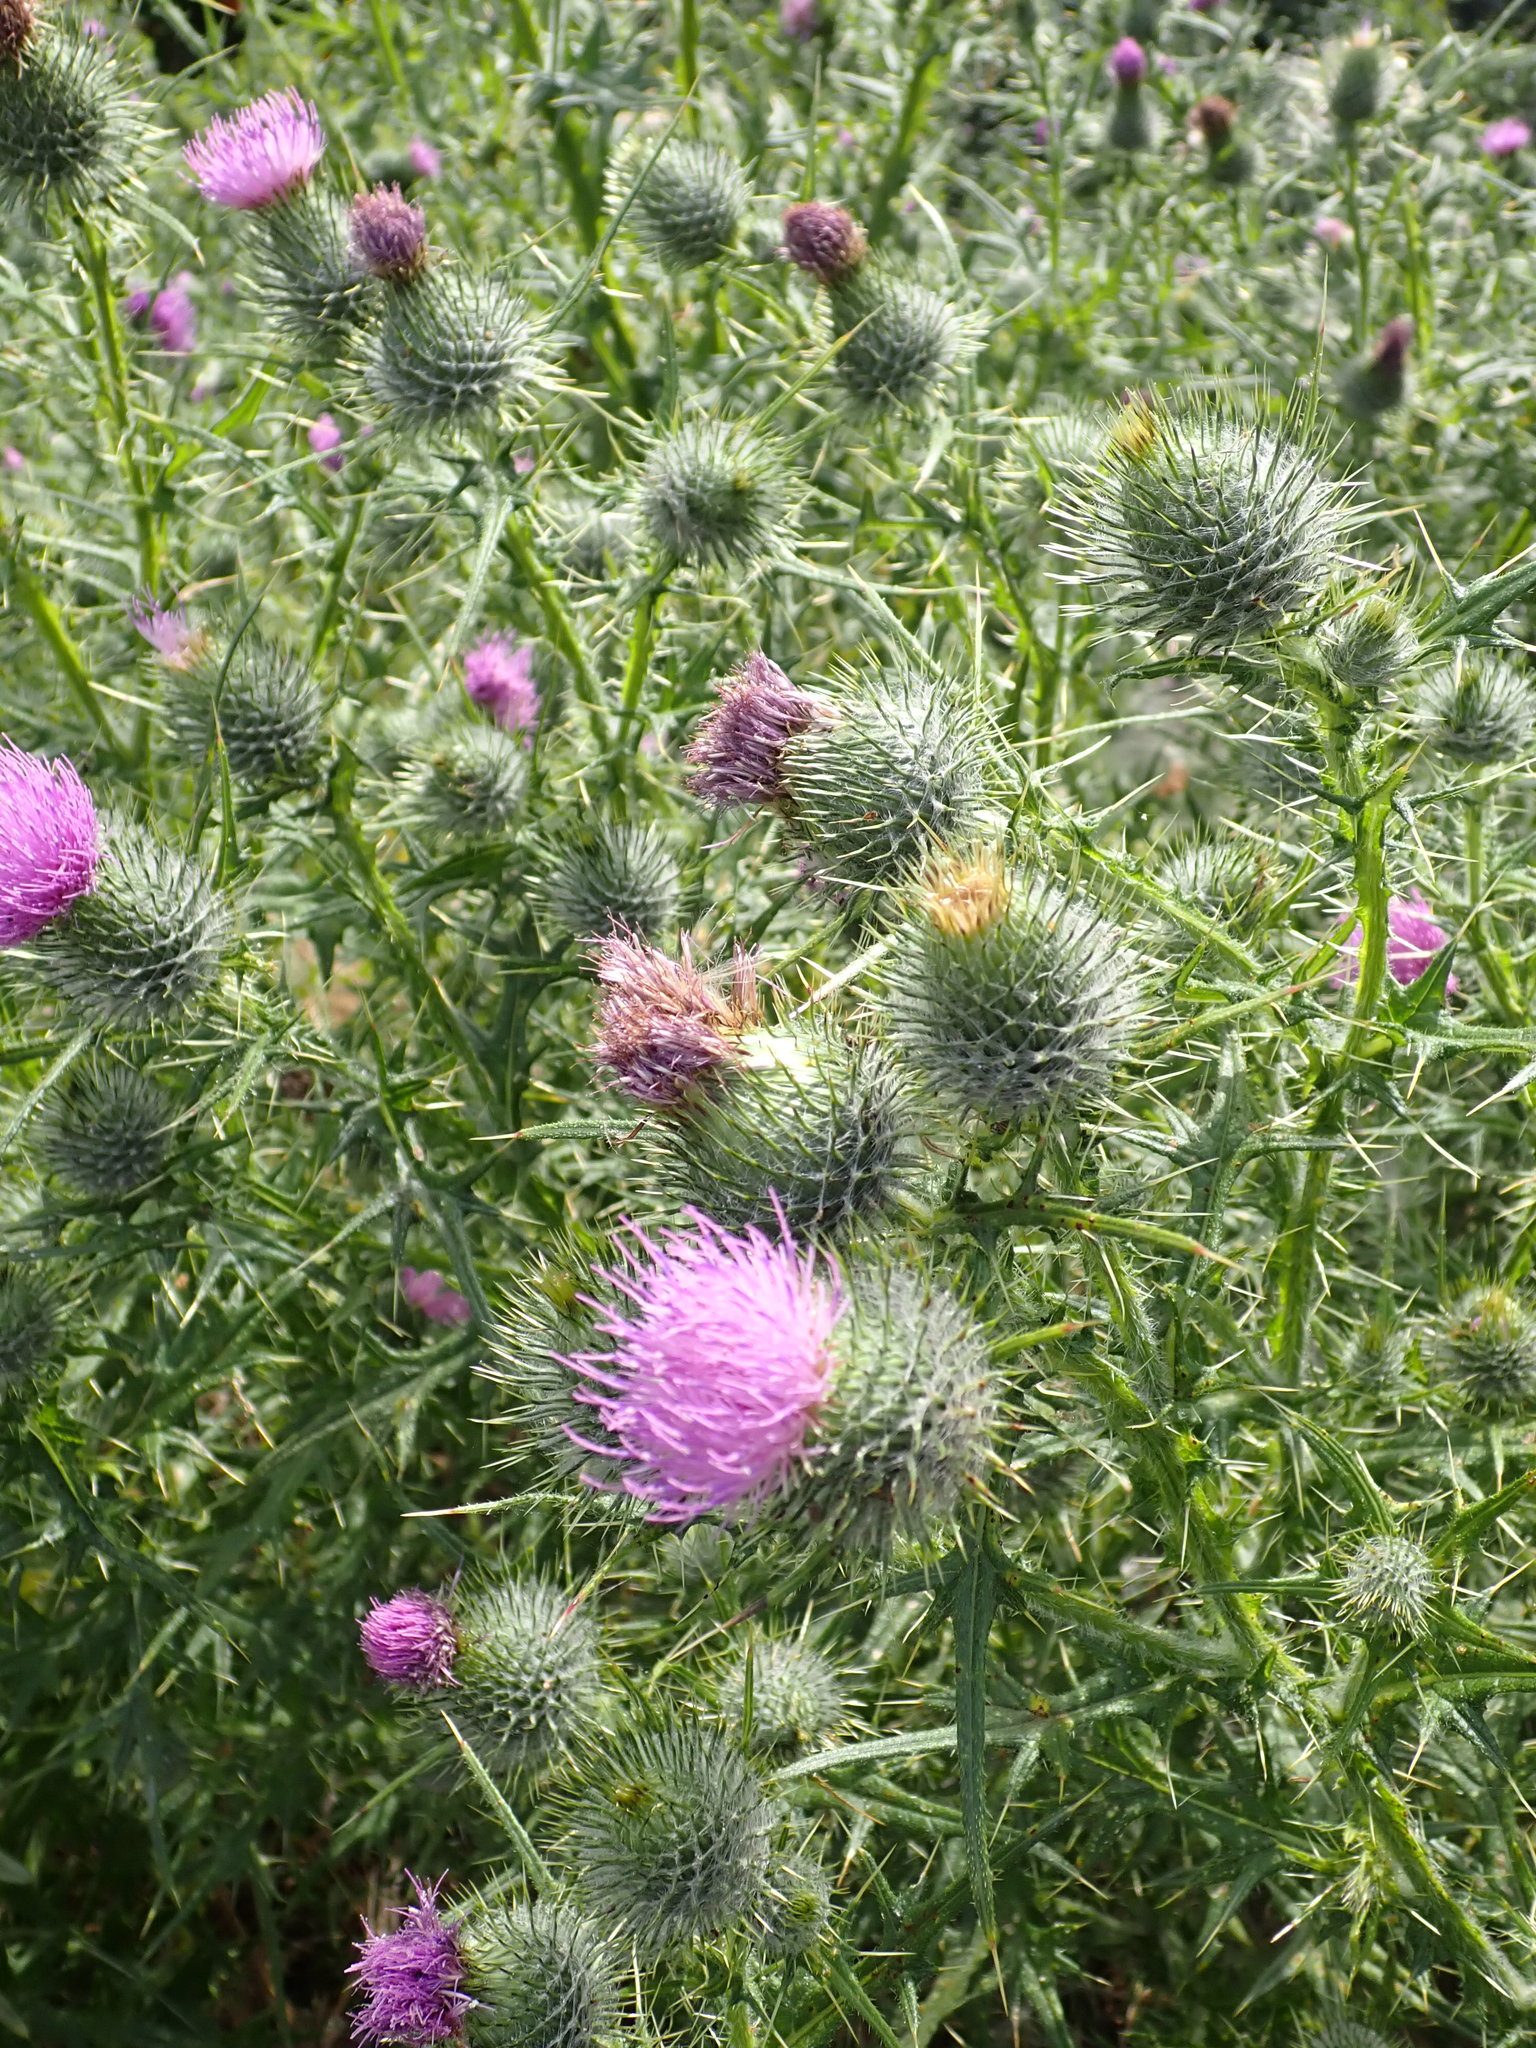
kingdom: Plantae
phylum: Tracheophyta
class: Magnoliopsida
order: Asterales
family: Asteraceae
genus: Cirsium
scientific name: Cirsium vulgare
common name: Bull thistle
